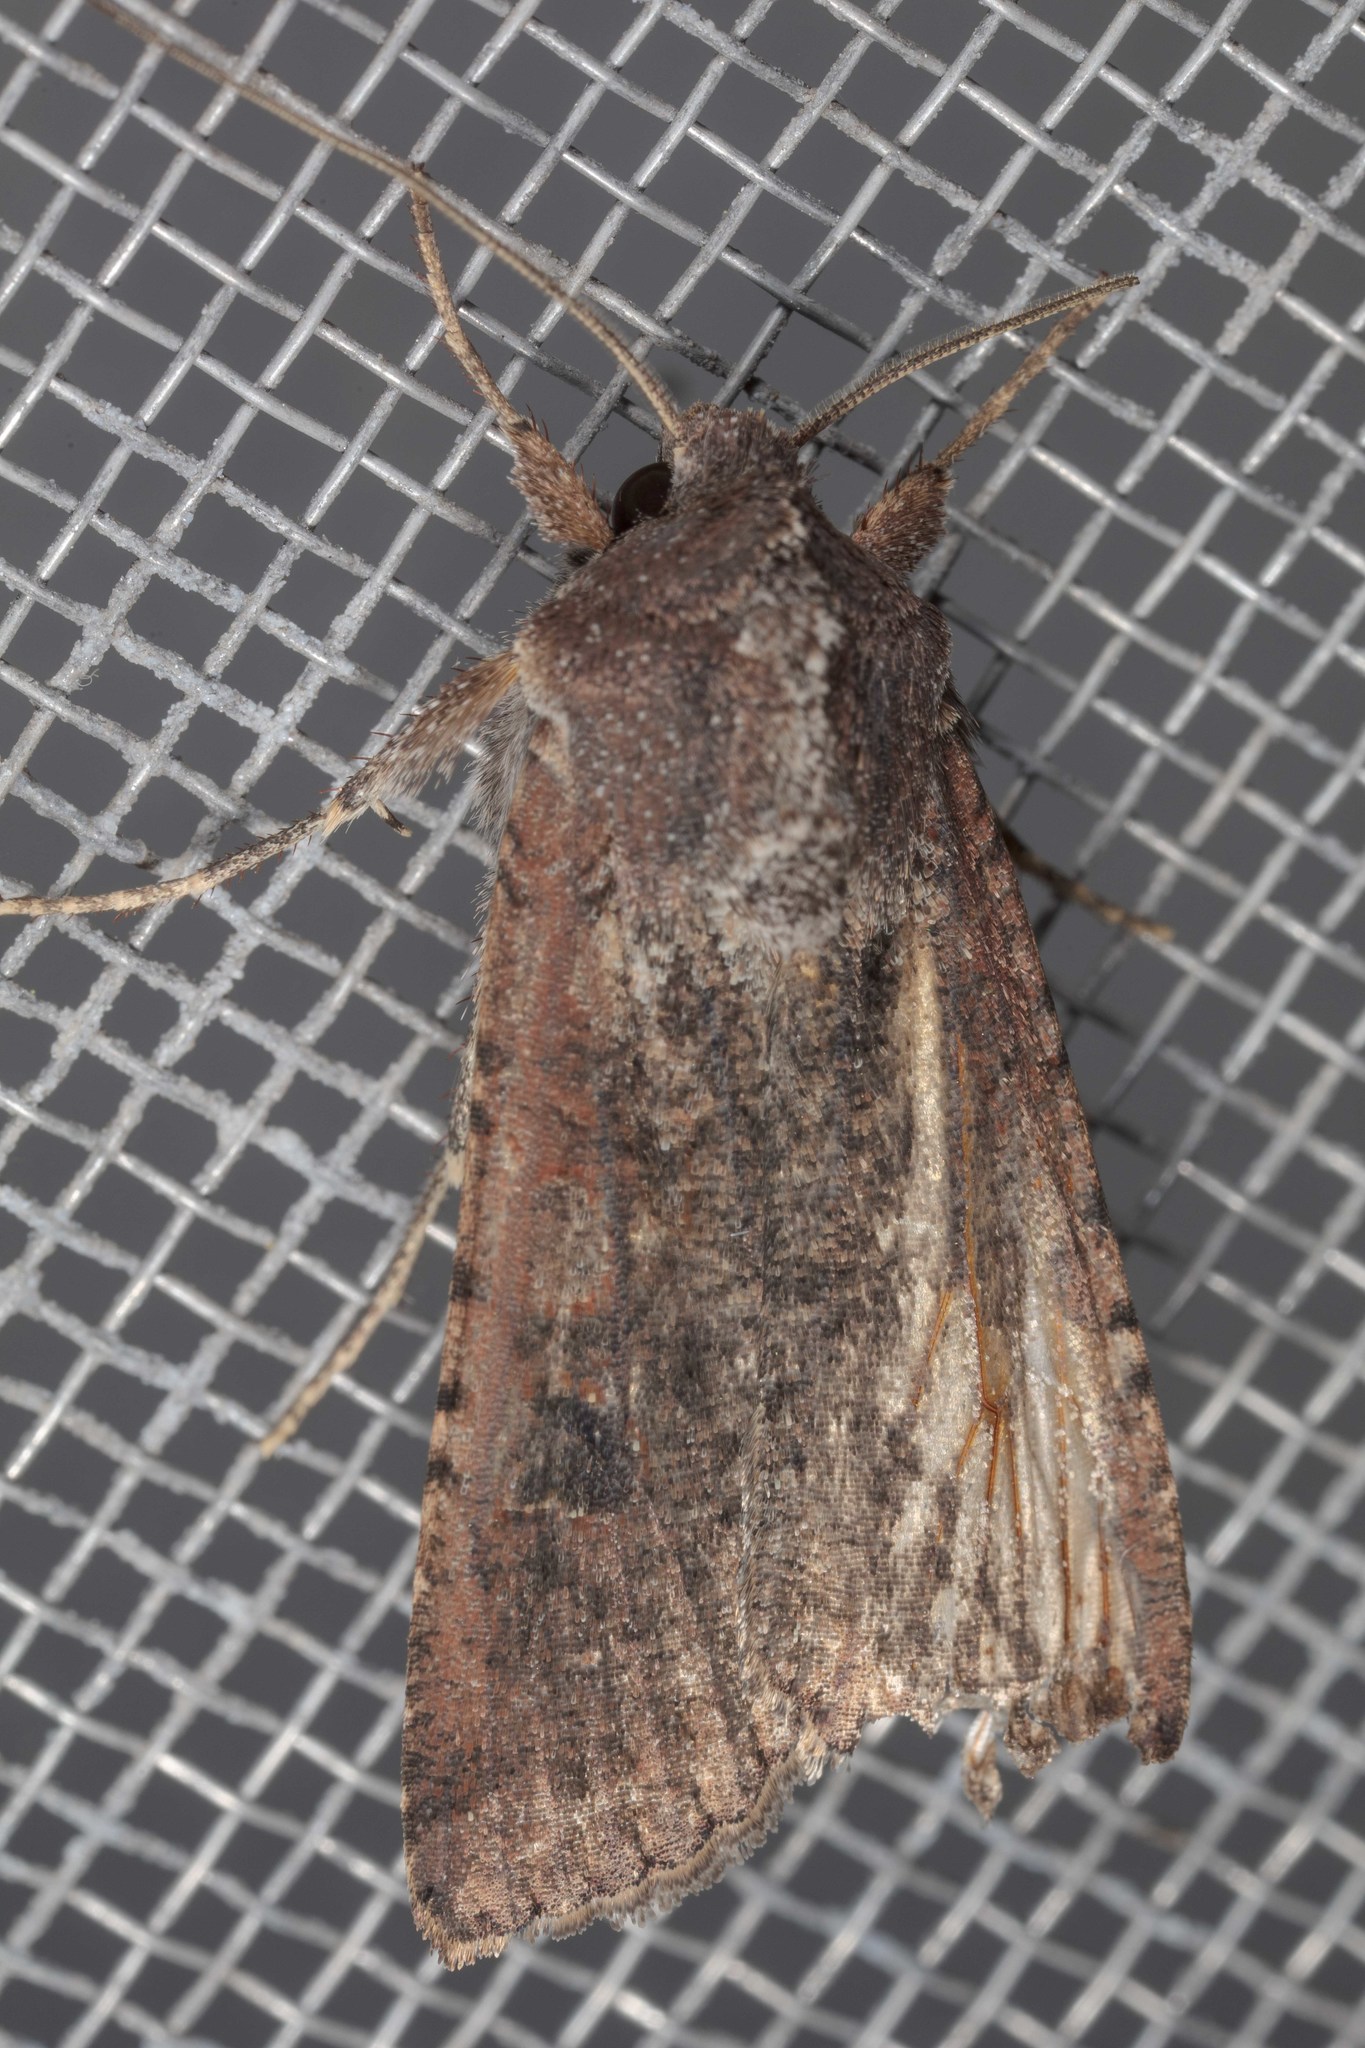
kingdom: Animalia
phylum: Arthropoda
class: Insecta
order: Lepidoptera
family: Noctuidae
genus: Peridroma
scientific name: Peridroma saucia
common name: Pearly underwing
